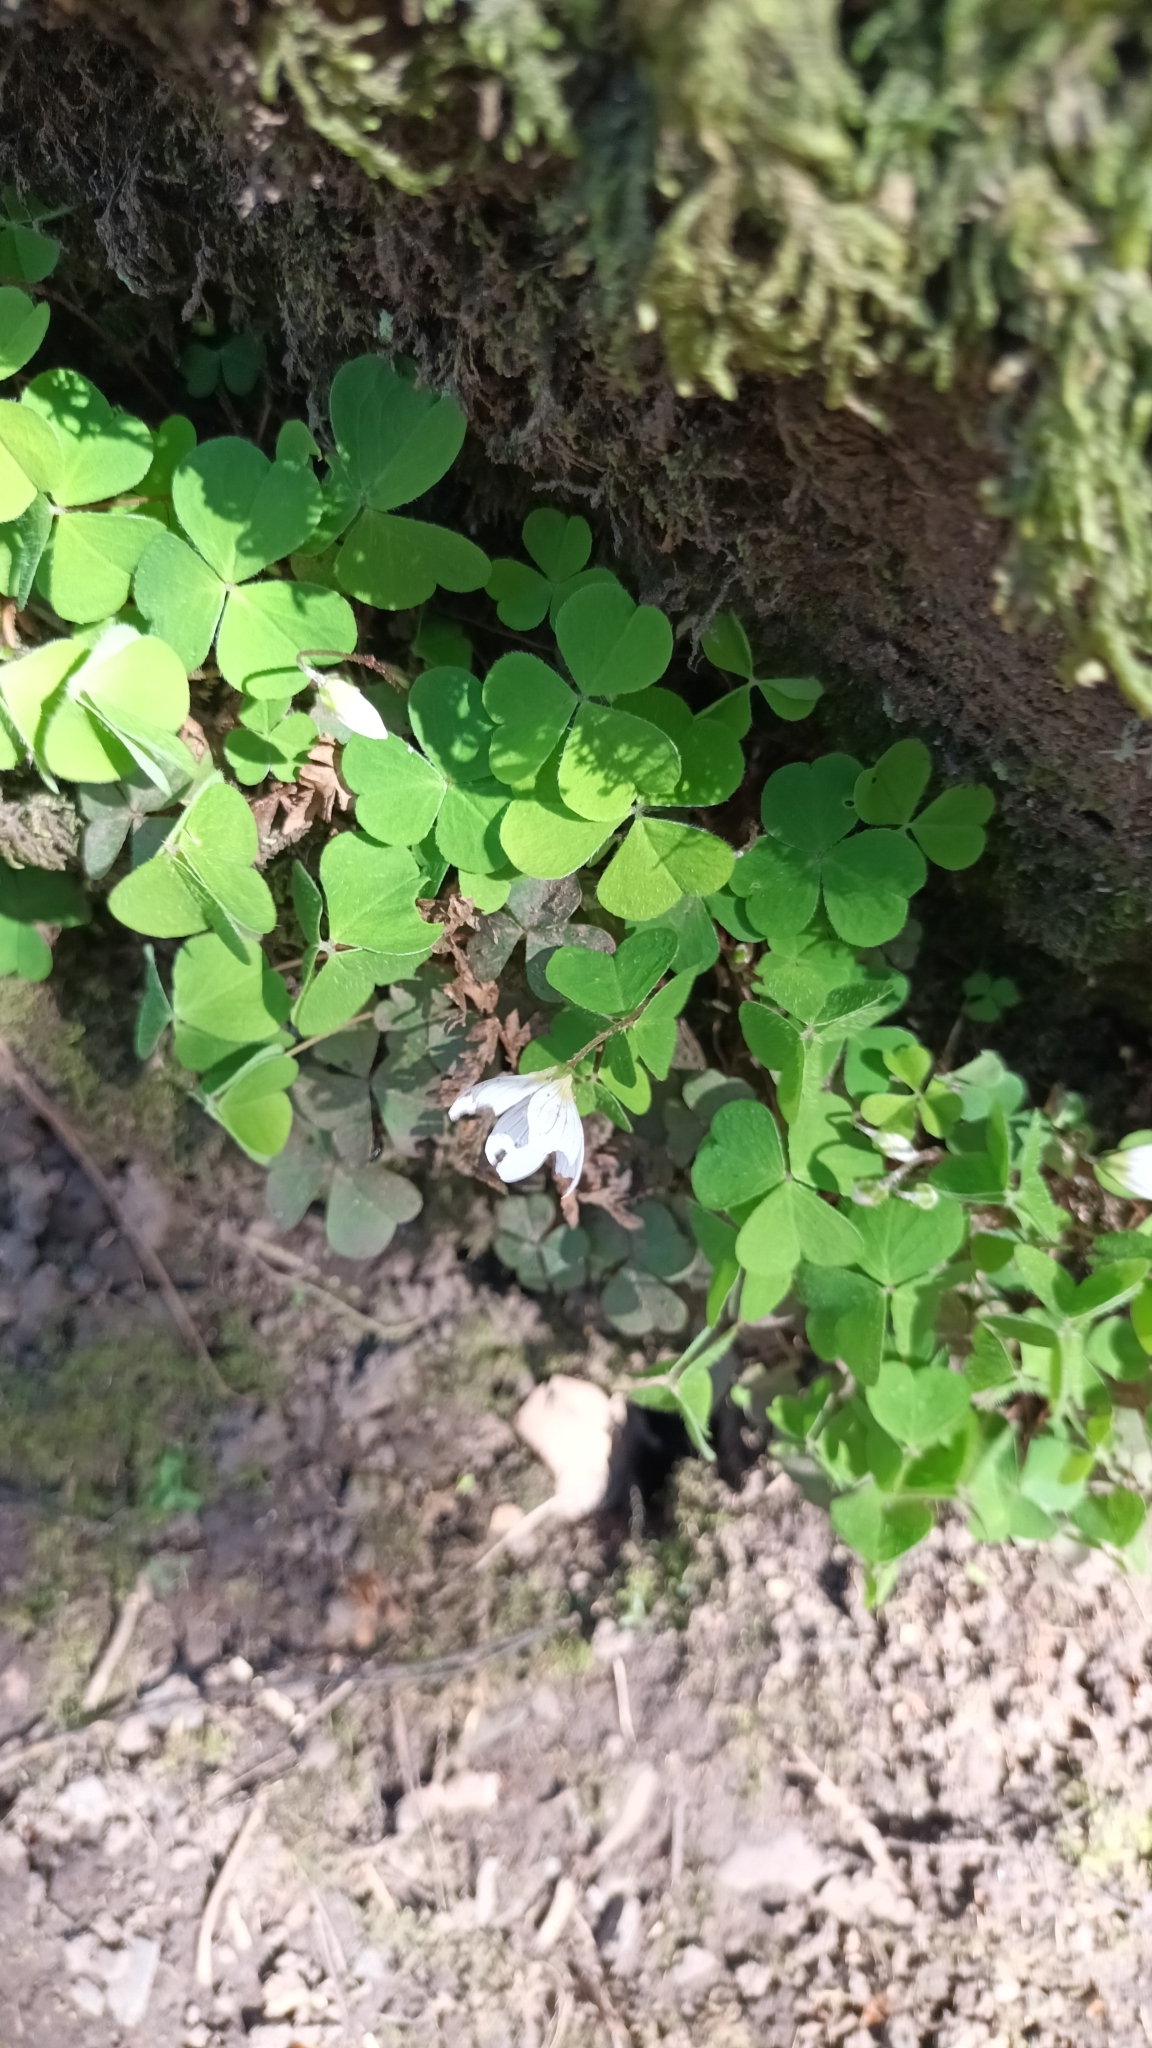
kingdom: Plantae
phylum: Tracheophyta
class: Magnoliopsida
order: Oxalidales
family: Oxalidaceae
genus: Oxalis
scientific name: Oxalis acetosella
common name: Wood-sorrel
